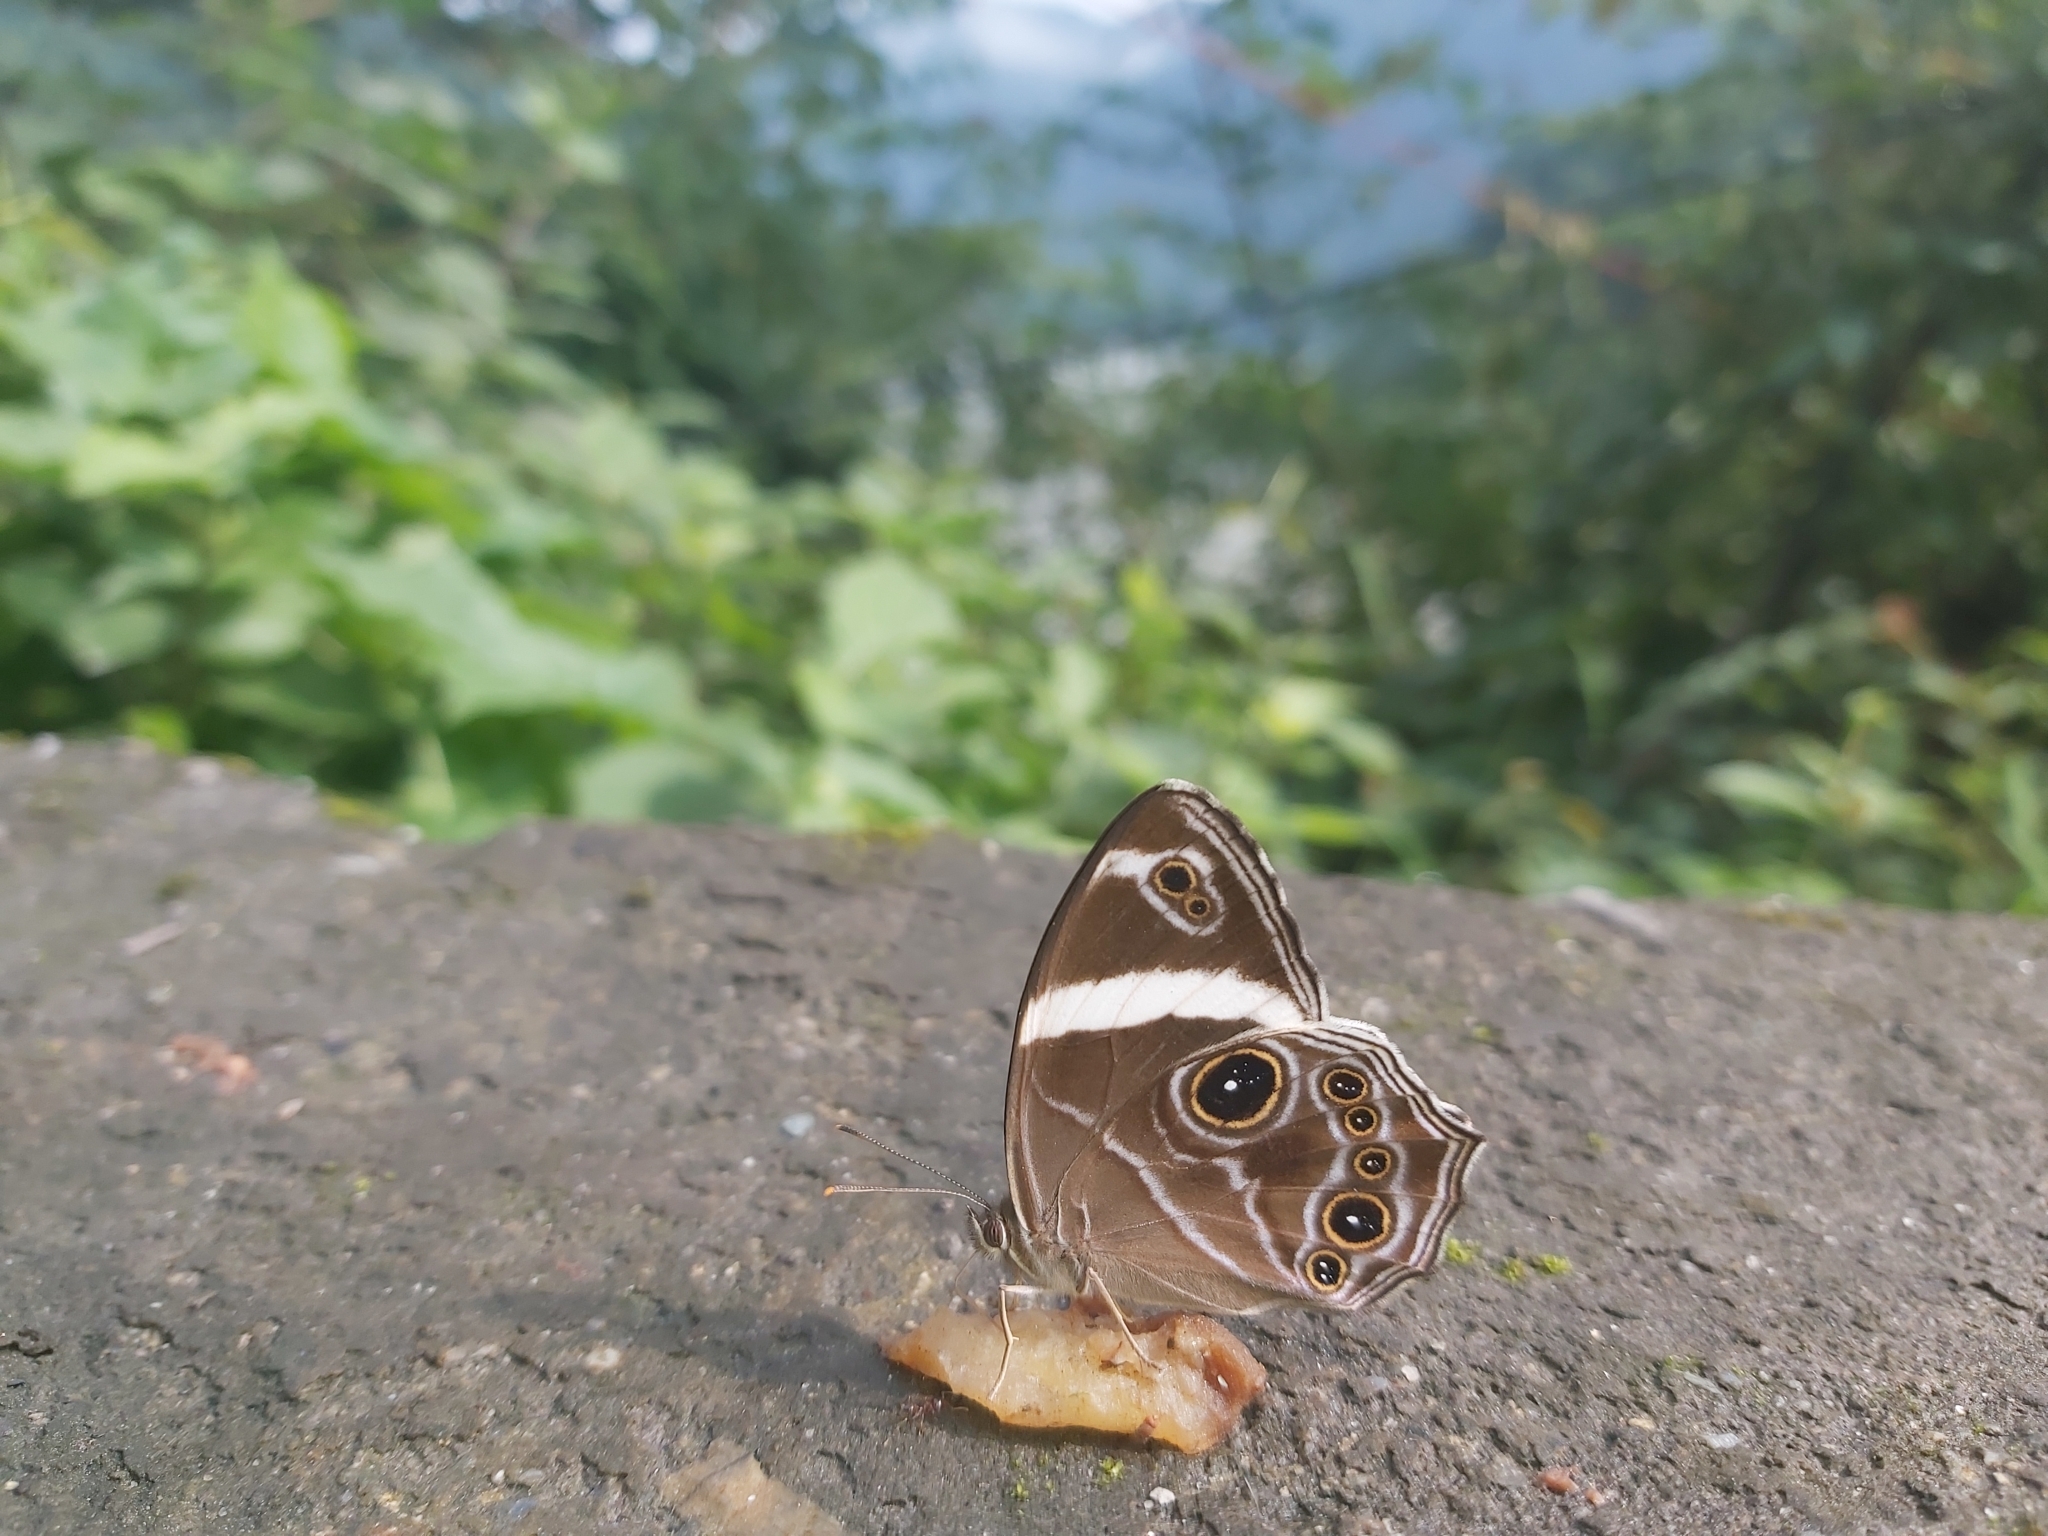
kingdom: Animalia
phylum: Arthropoda
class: Insecta
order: Lepidoptera
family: Nymphalidae
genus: Lethe
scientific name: Lethe confusa
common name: Banded treebrown
